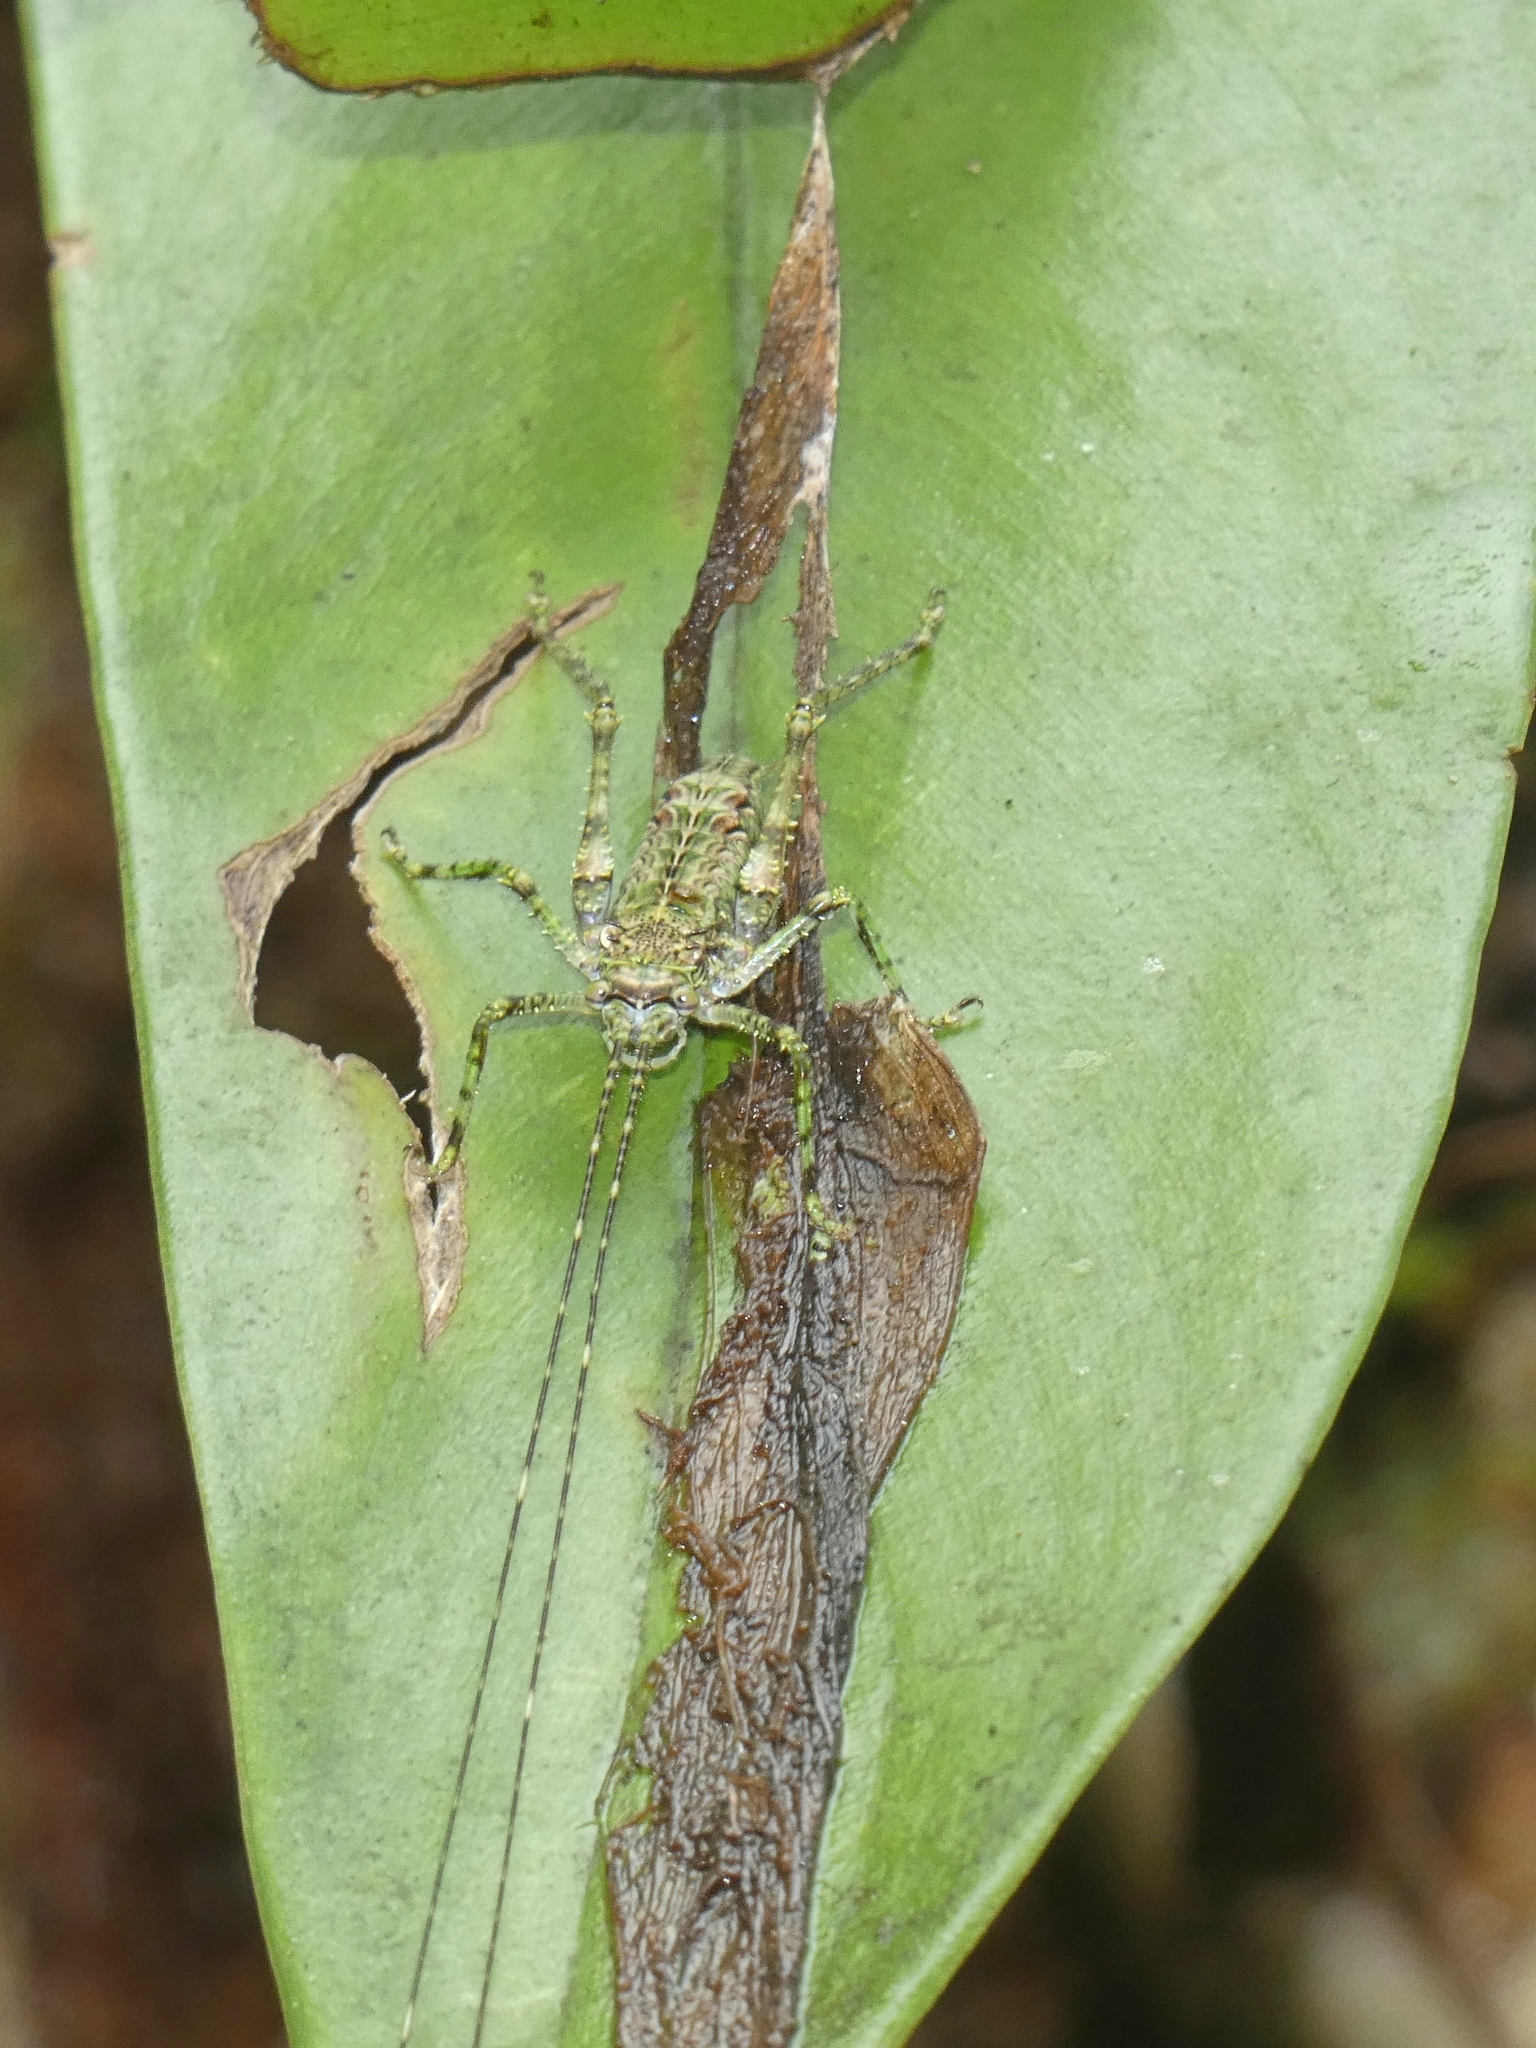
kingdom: Animalia
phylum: Arthropoda
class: Insecta
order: Orthoptera
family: Tettigoniidae
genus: Phricta
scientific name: Phricta spinosa
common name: Giant spiny forest katydid
